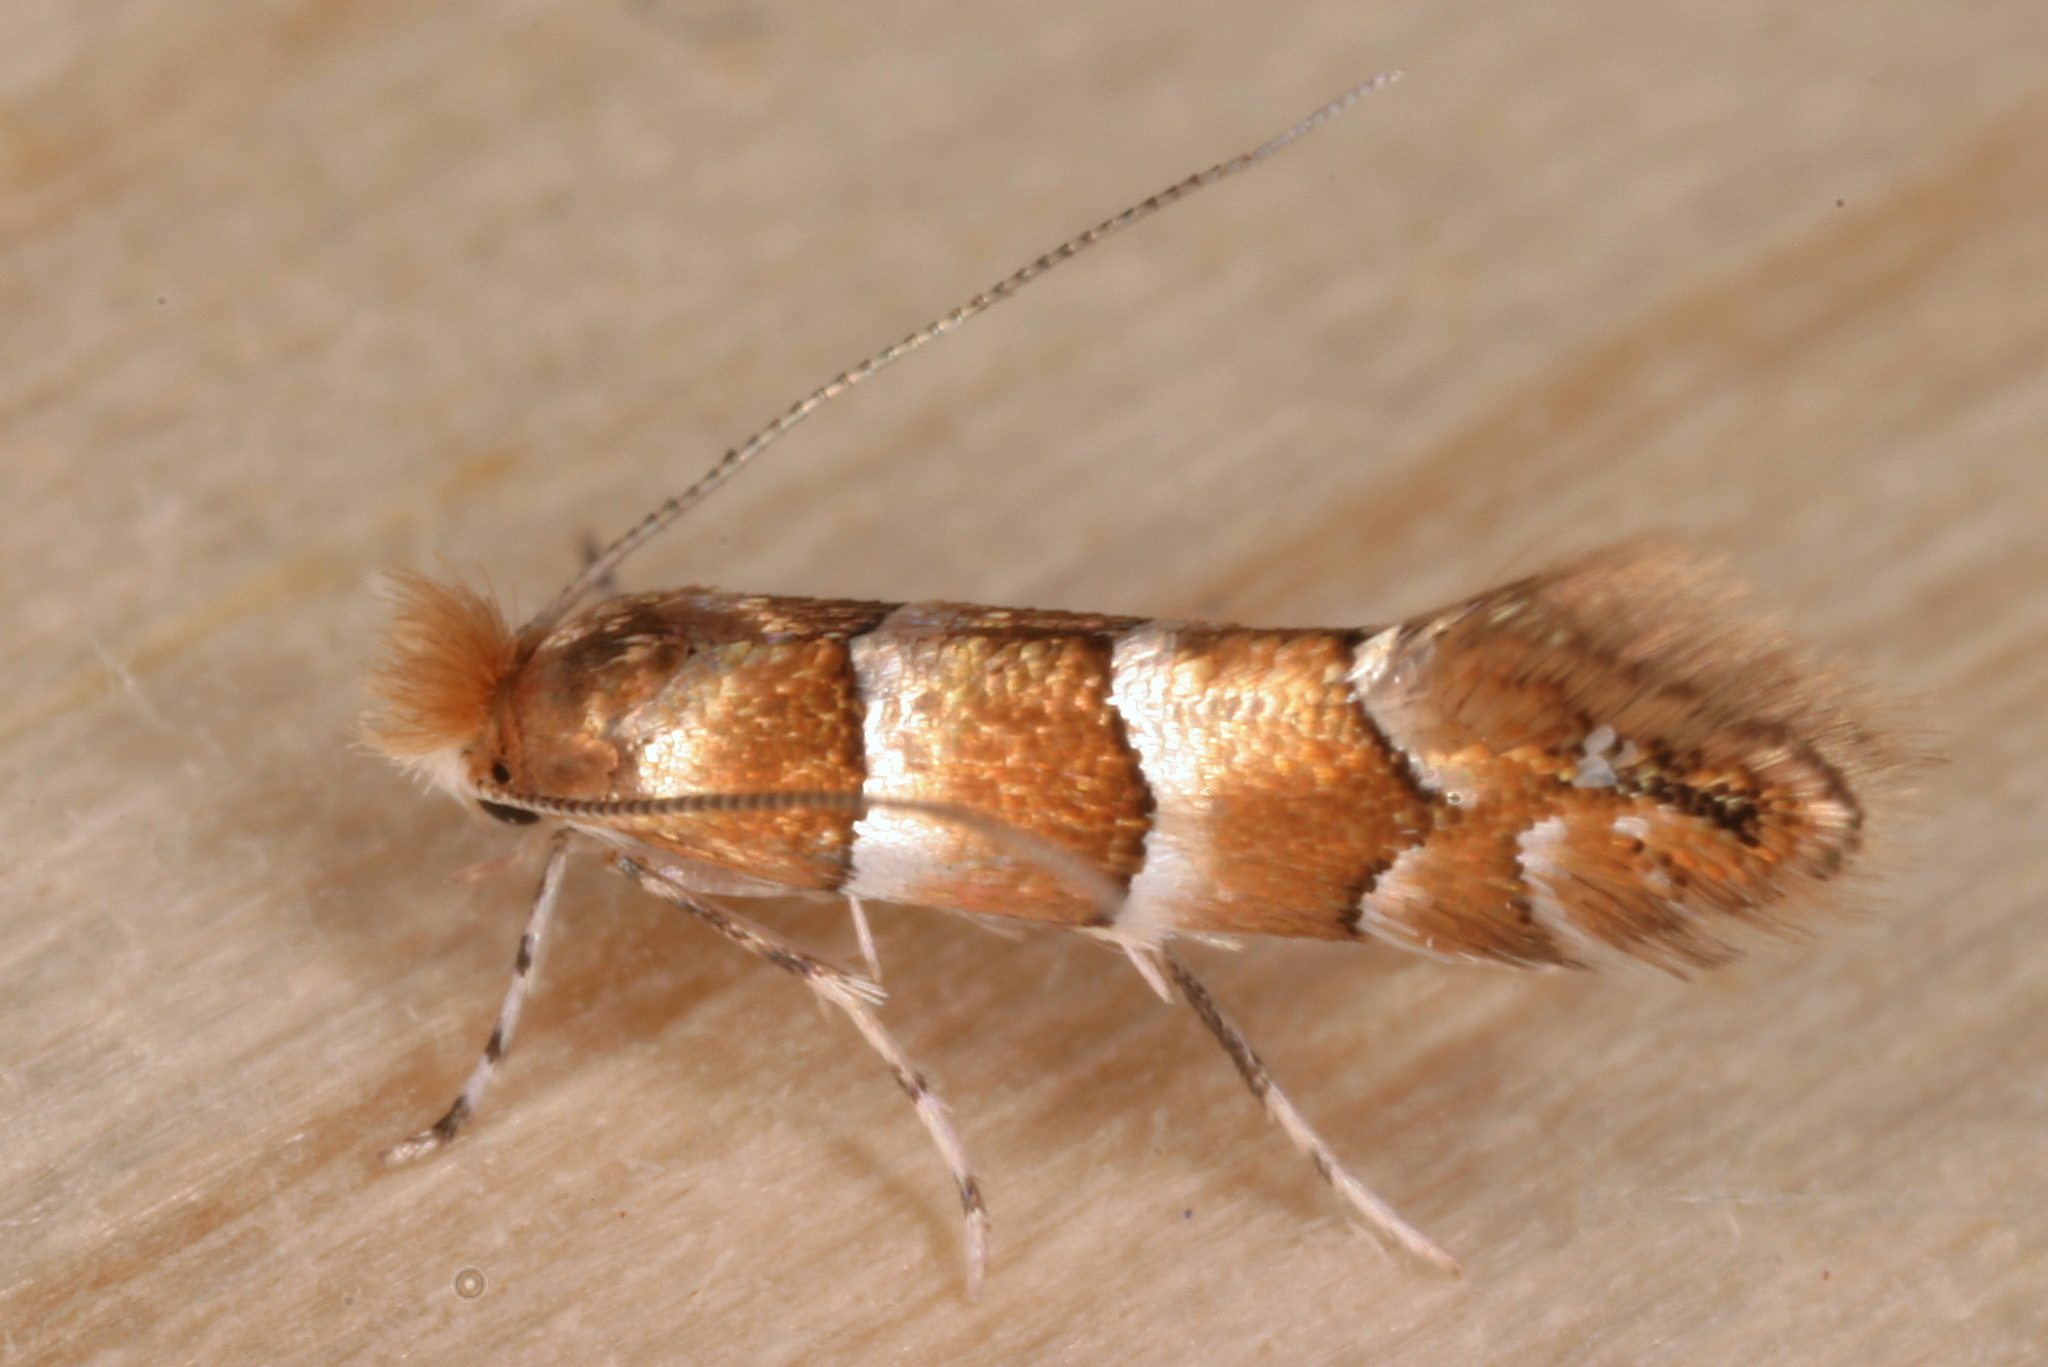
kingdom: Animalia
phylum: Arthropoda
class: Insecta
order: Lepidoptera
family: Gracillariidae
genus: Phyllonorycter
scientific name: Phyllonorycter nicellii
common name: Red hazel midget
